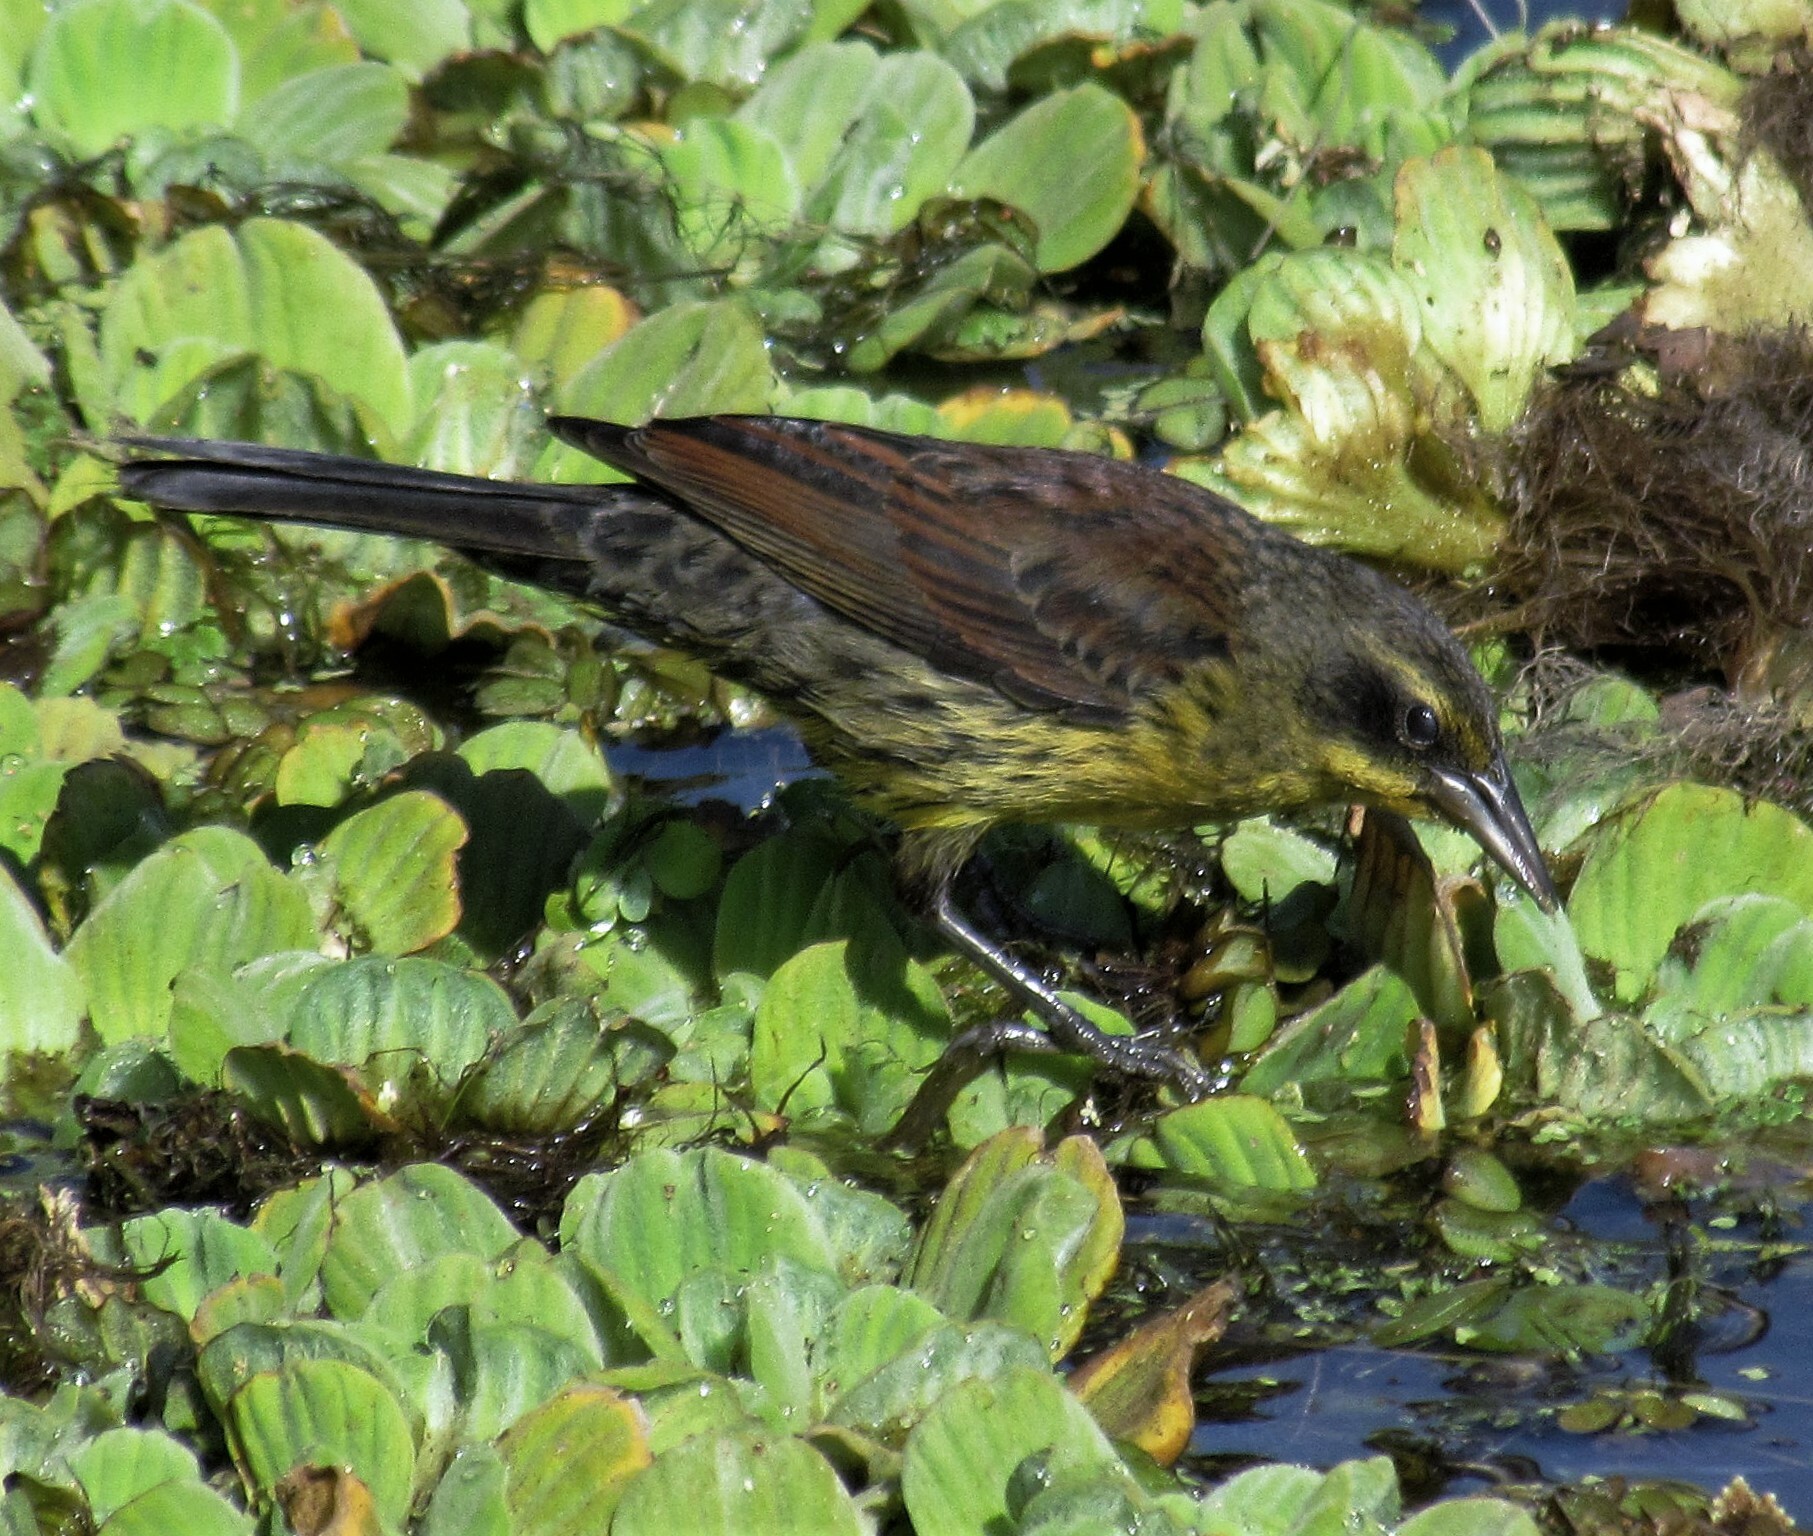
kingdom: Animalia
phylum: Chordata
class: Aves
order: Passeriformes
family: Icteridae
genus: Agelasticus
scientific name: Agelasticus cyanopus
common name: Unicolored blackbird
